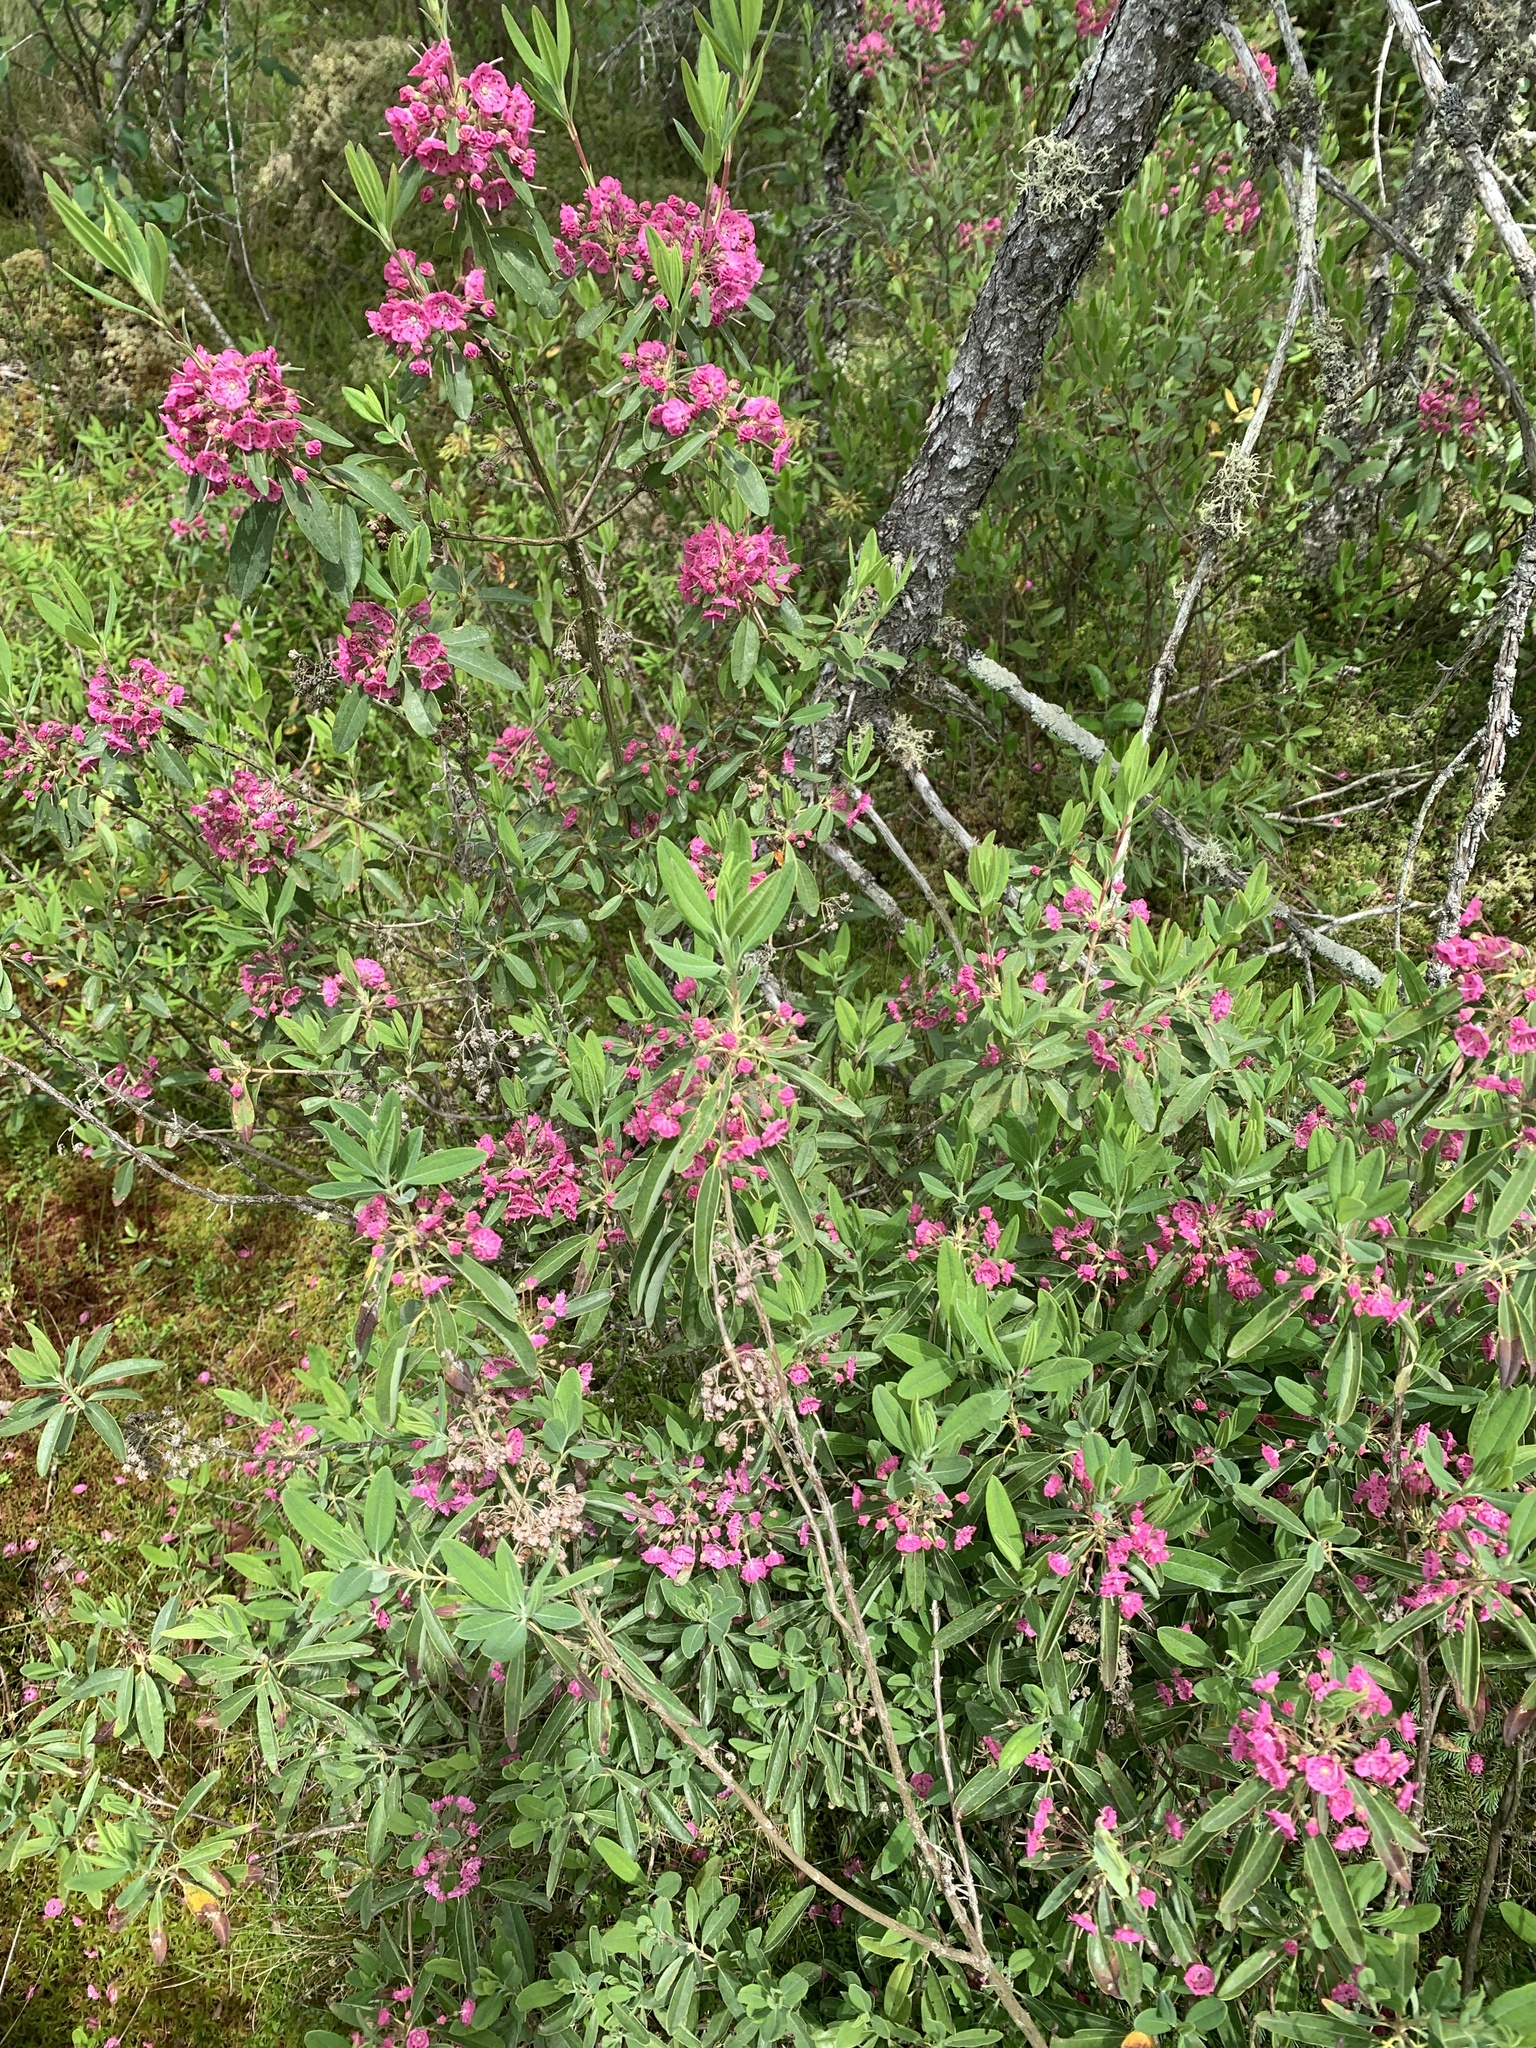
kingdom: Plantae
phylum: Tracheophyta
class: Magnoliopsida
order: Ericales
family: Ericaceae
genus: Kalmia
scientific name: Kalmia angustifolia
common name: Sheep-laurel
